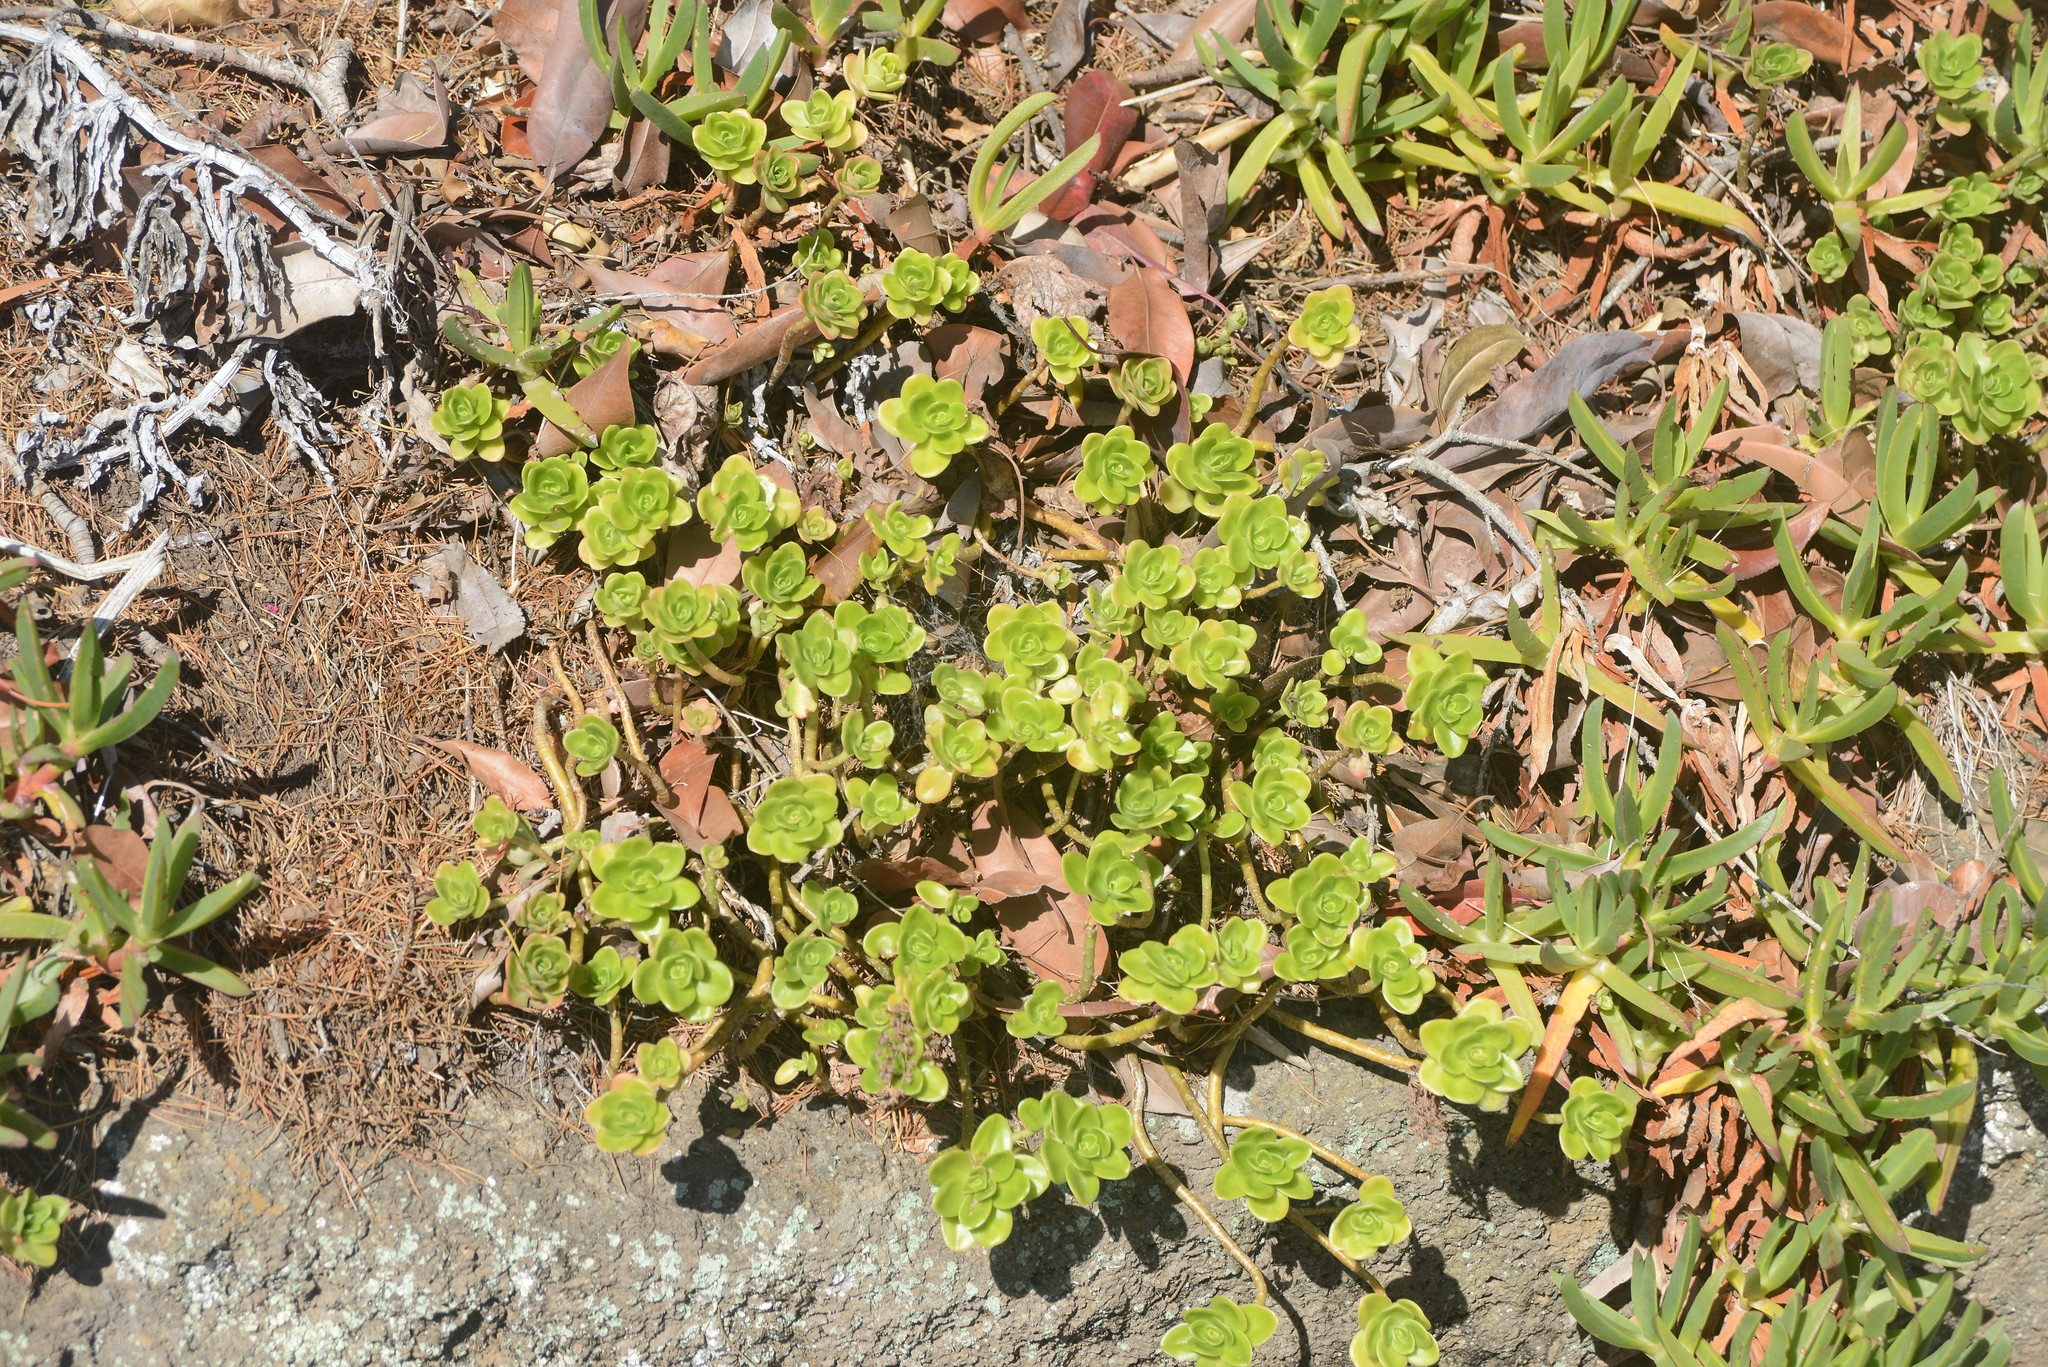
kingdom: Plantae
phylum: Tracheophyta
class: Magnoliopsida
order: Saxifragales
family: Crassulaceae
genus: Sedum
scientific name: Sedum kimnachii
